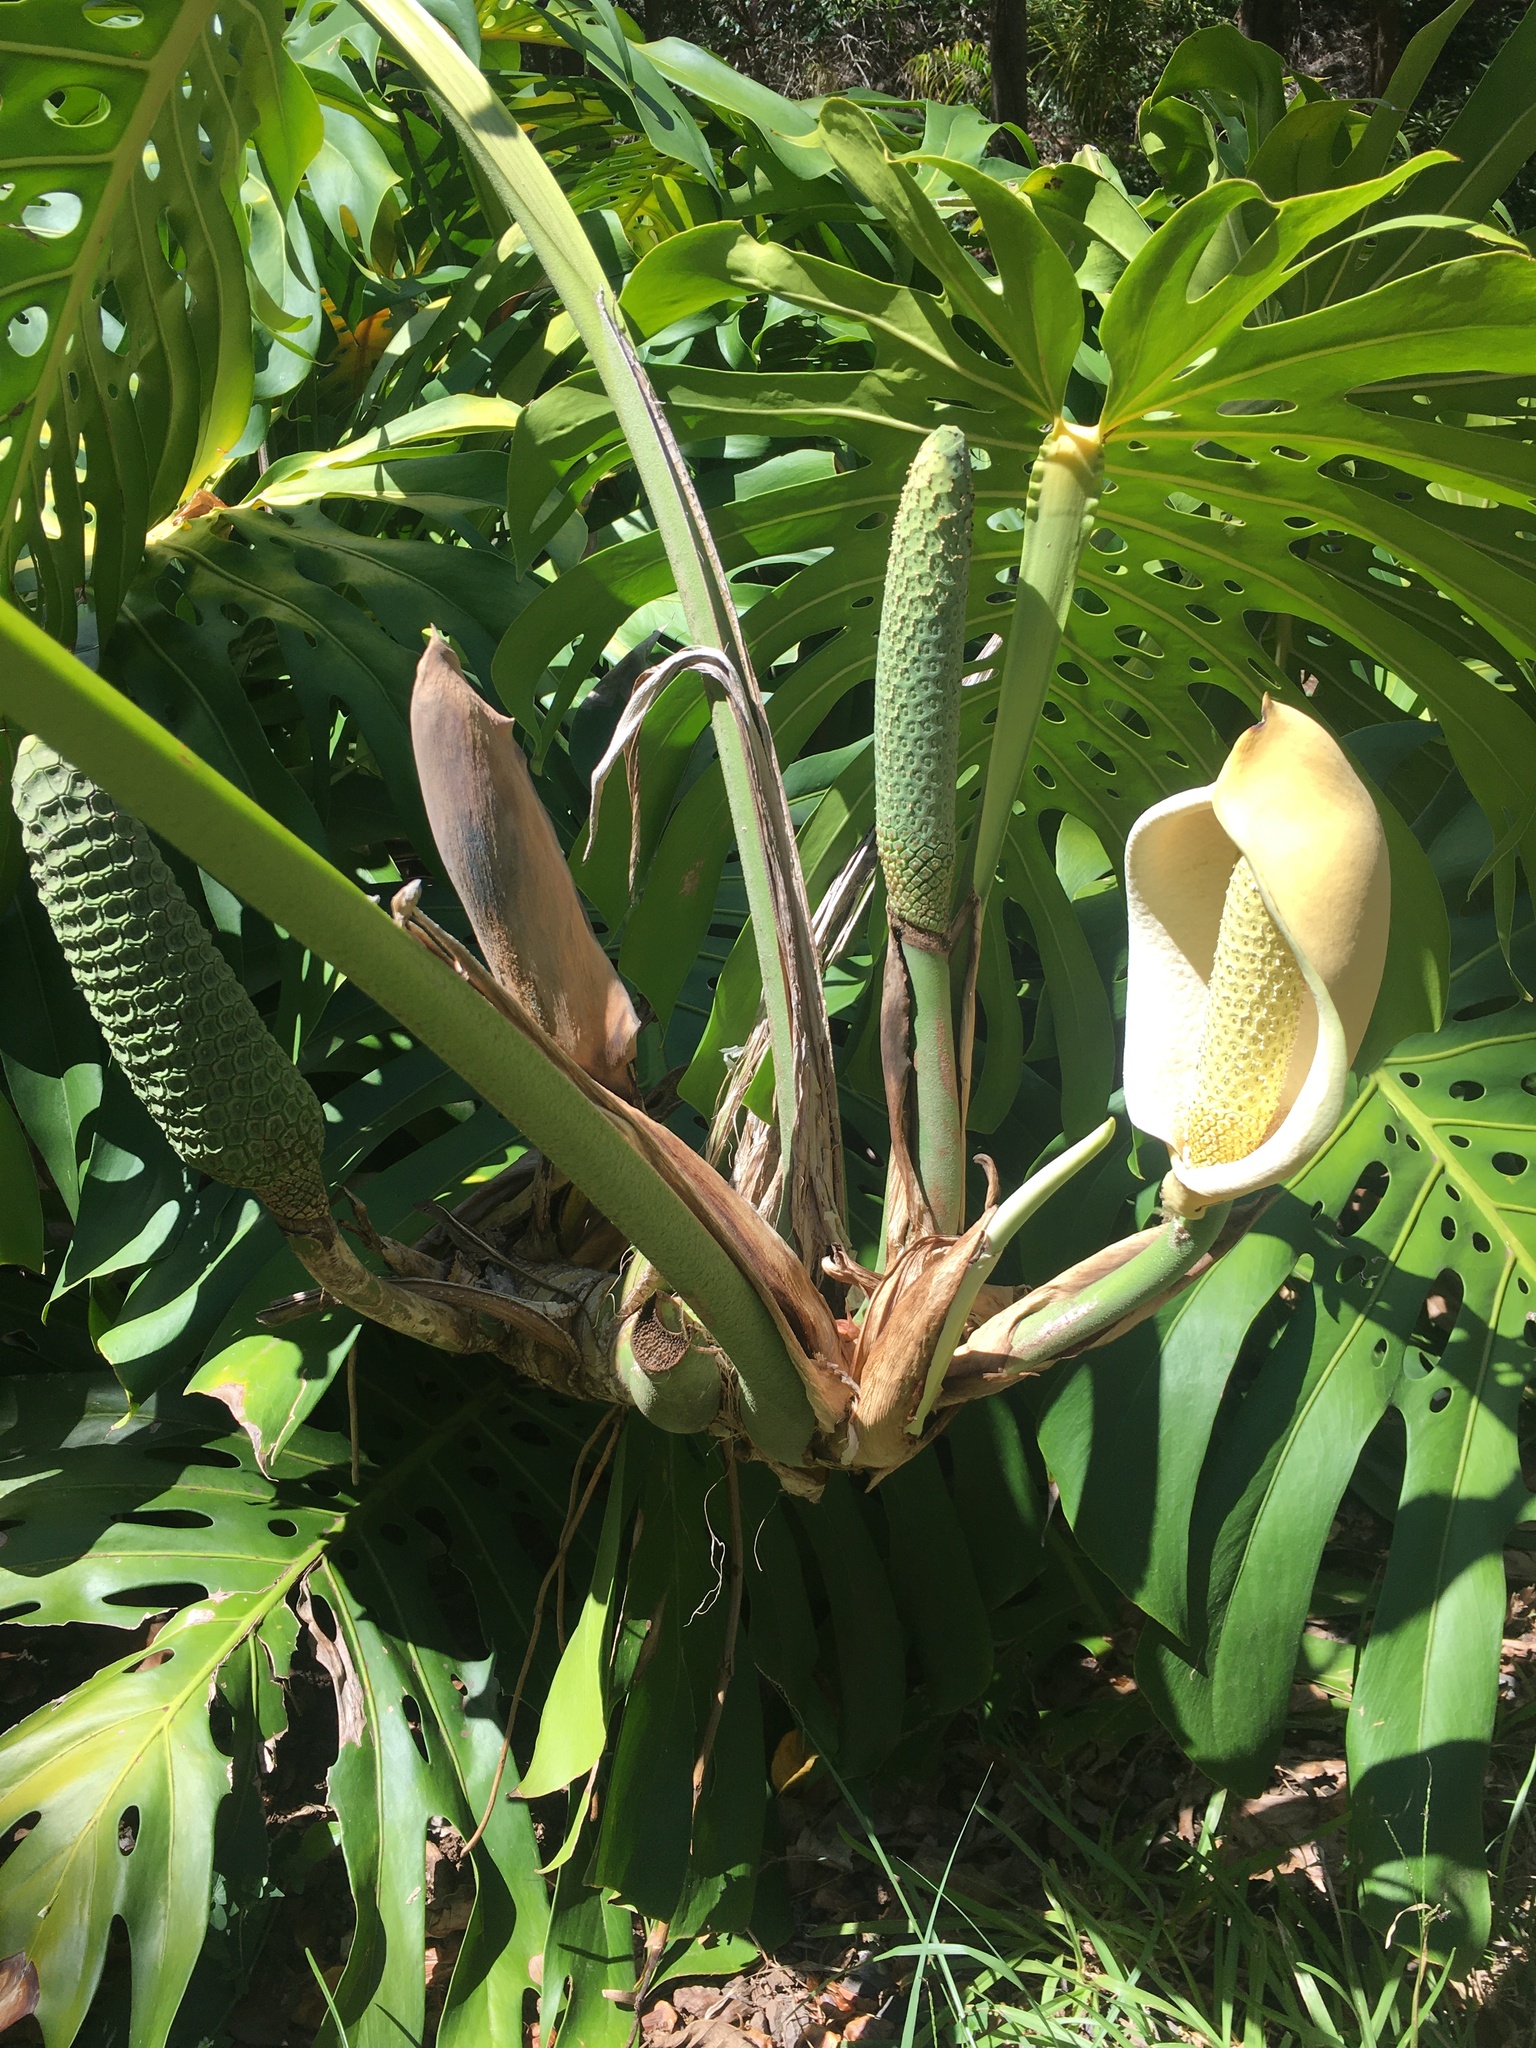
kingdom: Plantae
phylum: Tracheophyta
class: Liliopsida
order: Alismatales
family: Araceae
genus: Monstera
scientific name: Monstera deliciosa
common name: Cut-leaf-philodendron
